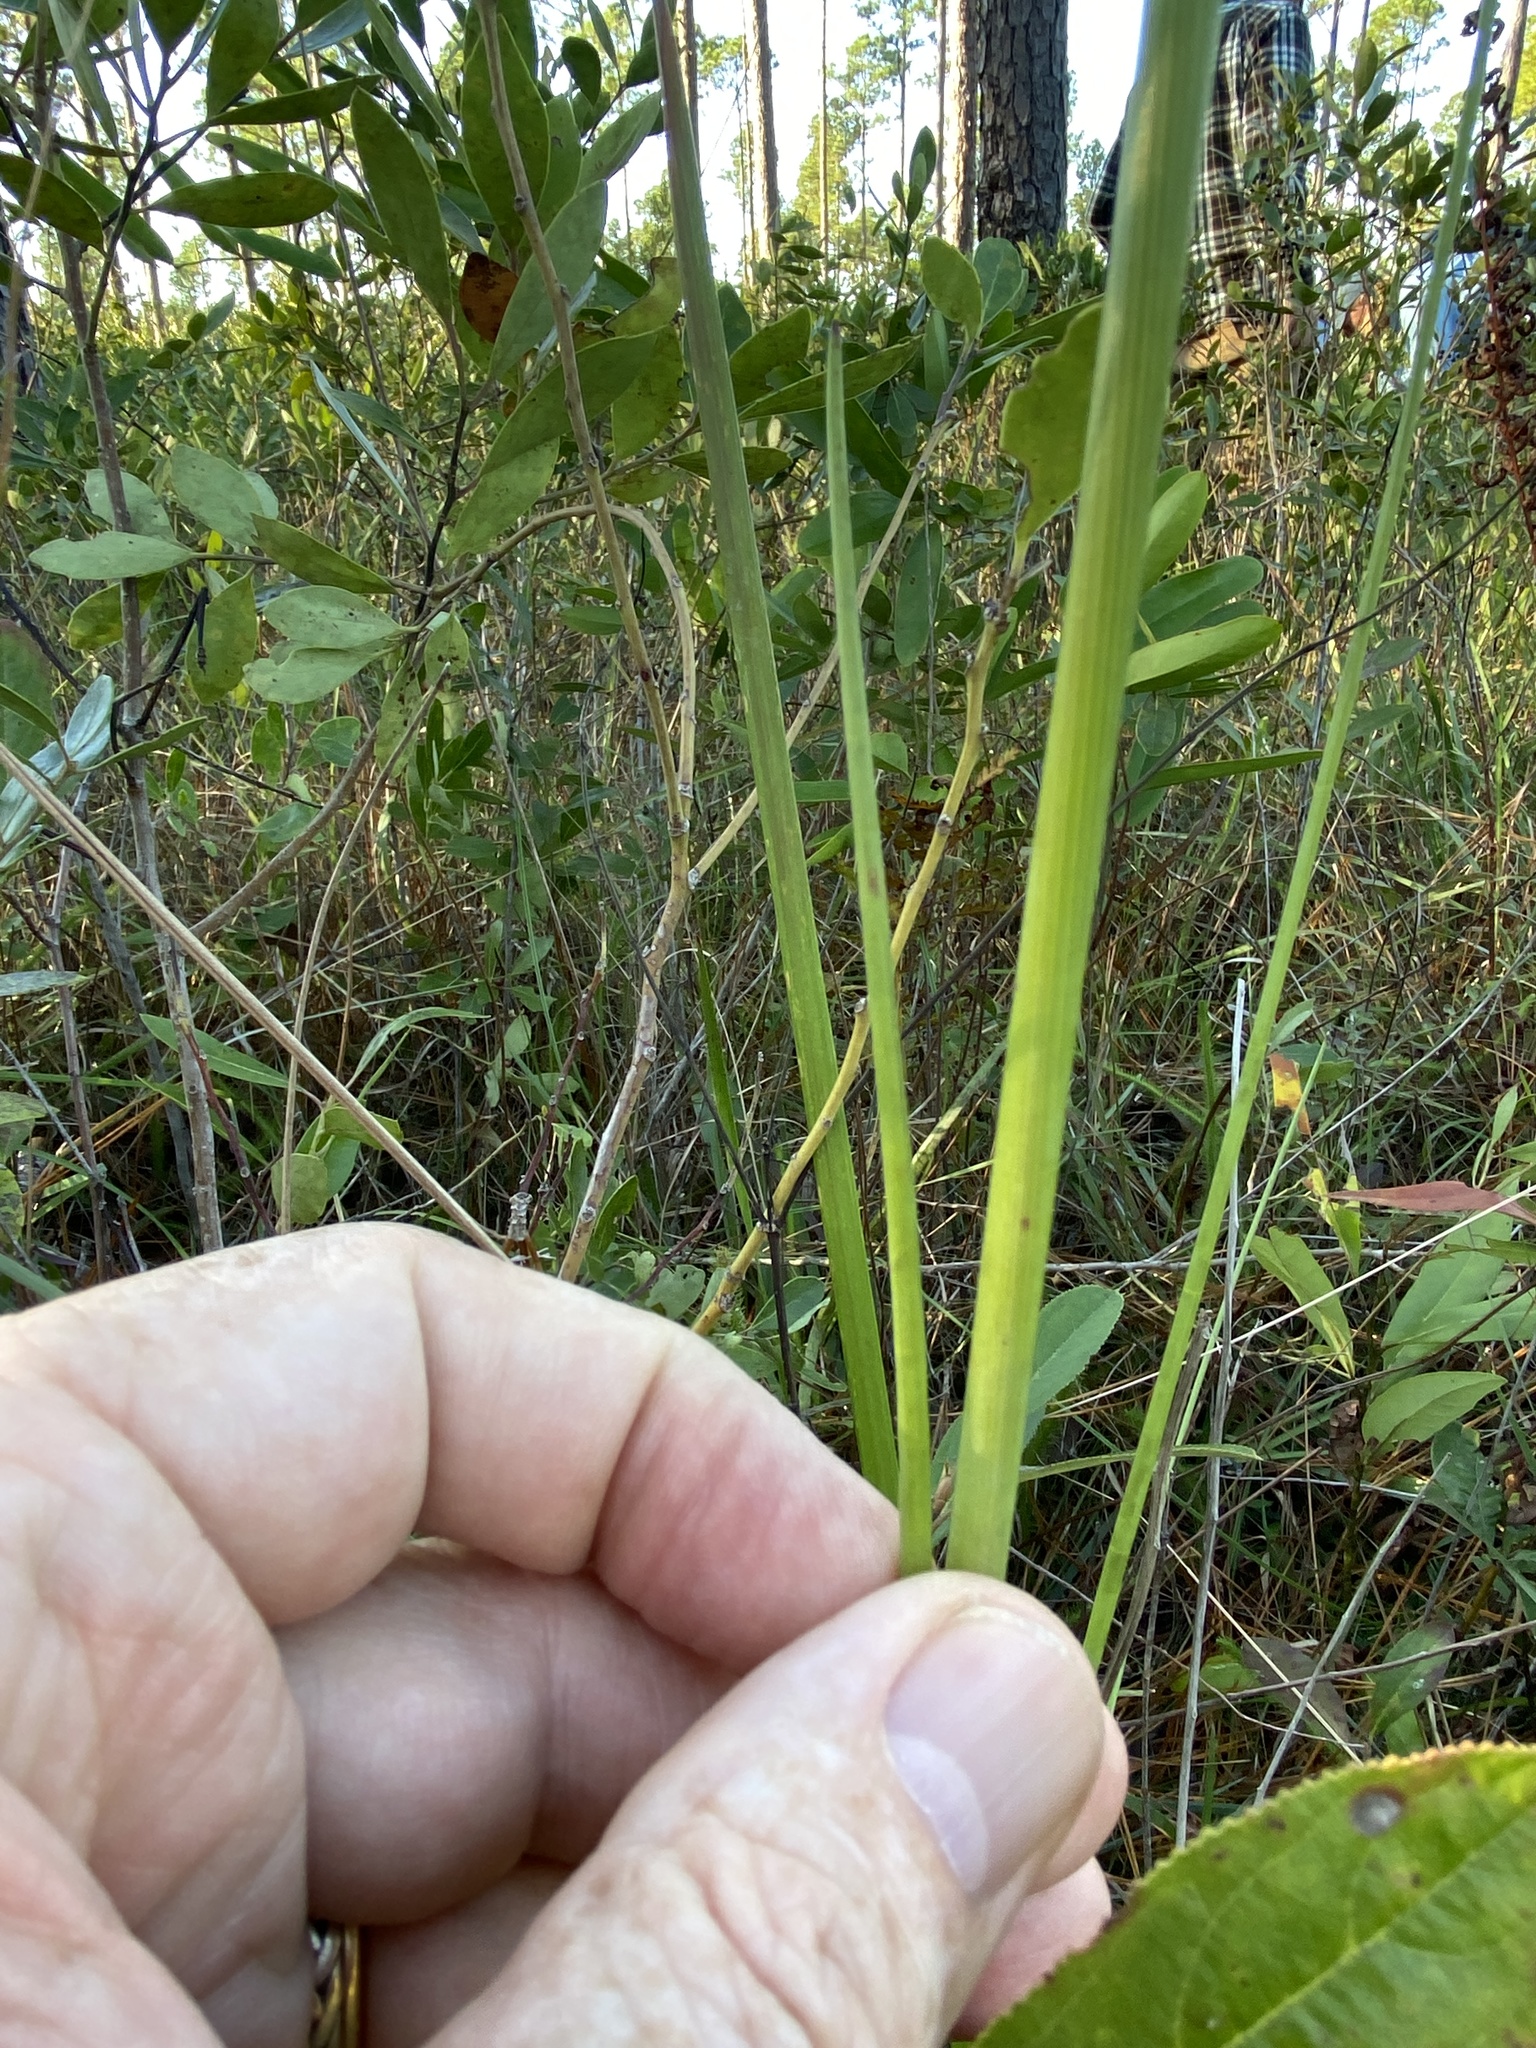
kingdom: Plantae
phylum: Tracheophyta
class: Magnoliopsida
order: Apiales
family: Apiaceae
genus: Tiedemannia
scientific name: Tiedemannia filiformis
